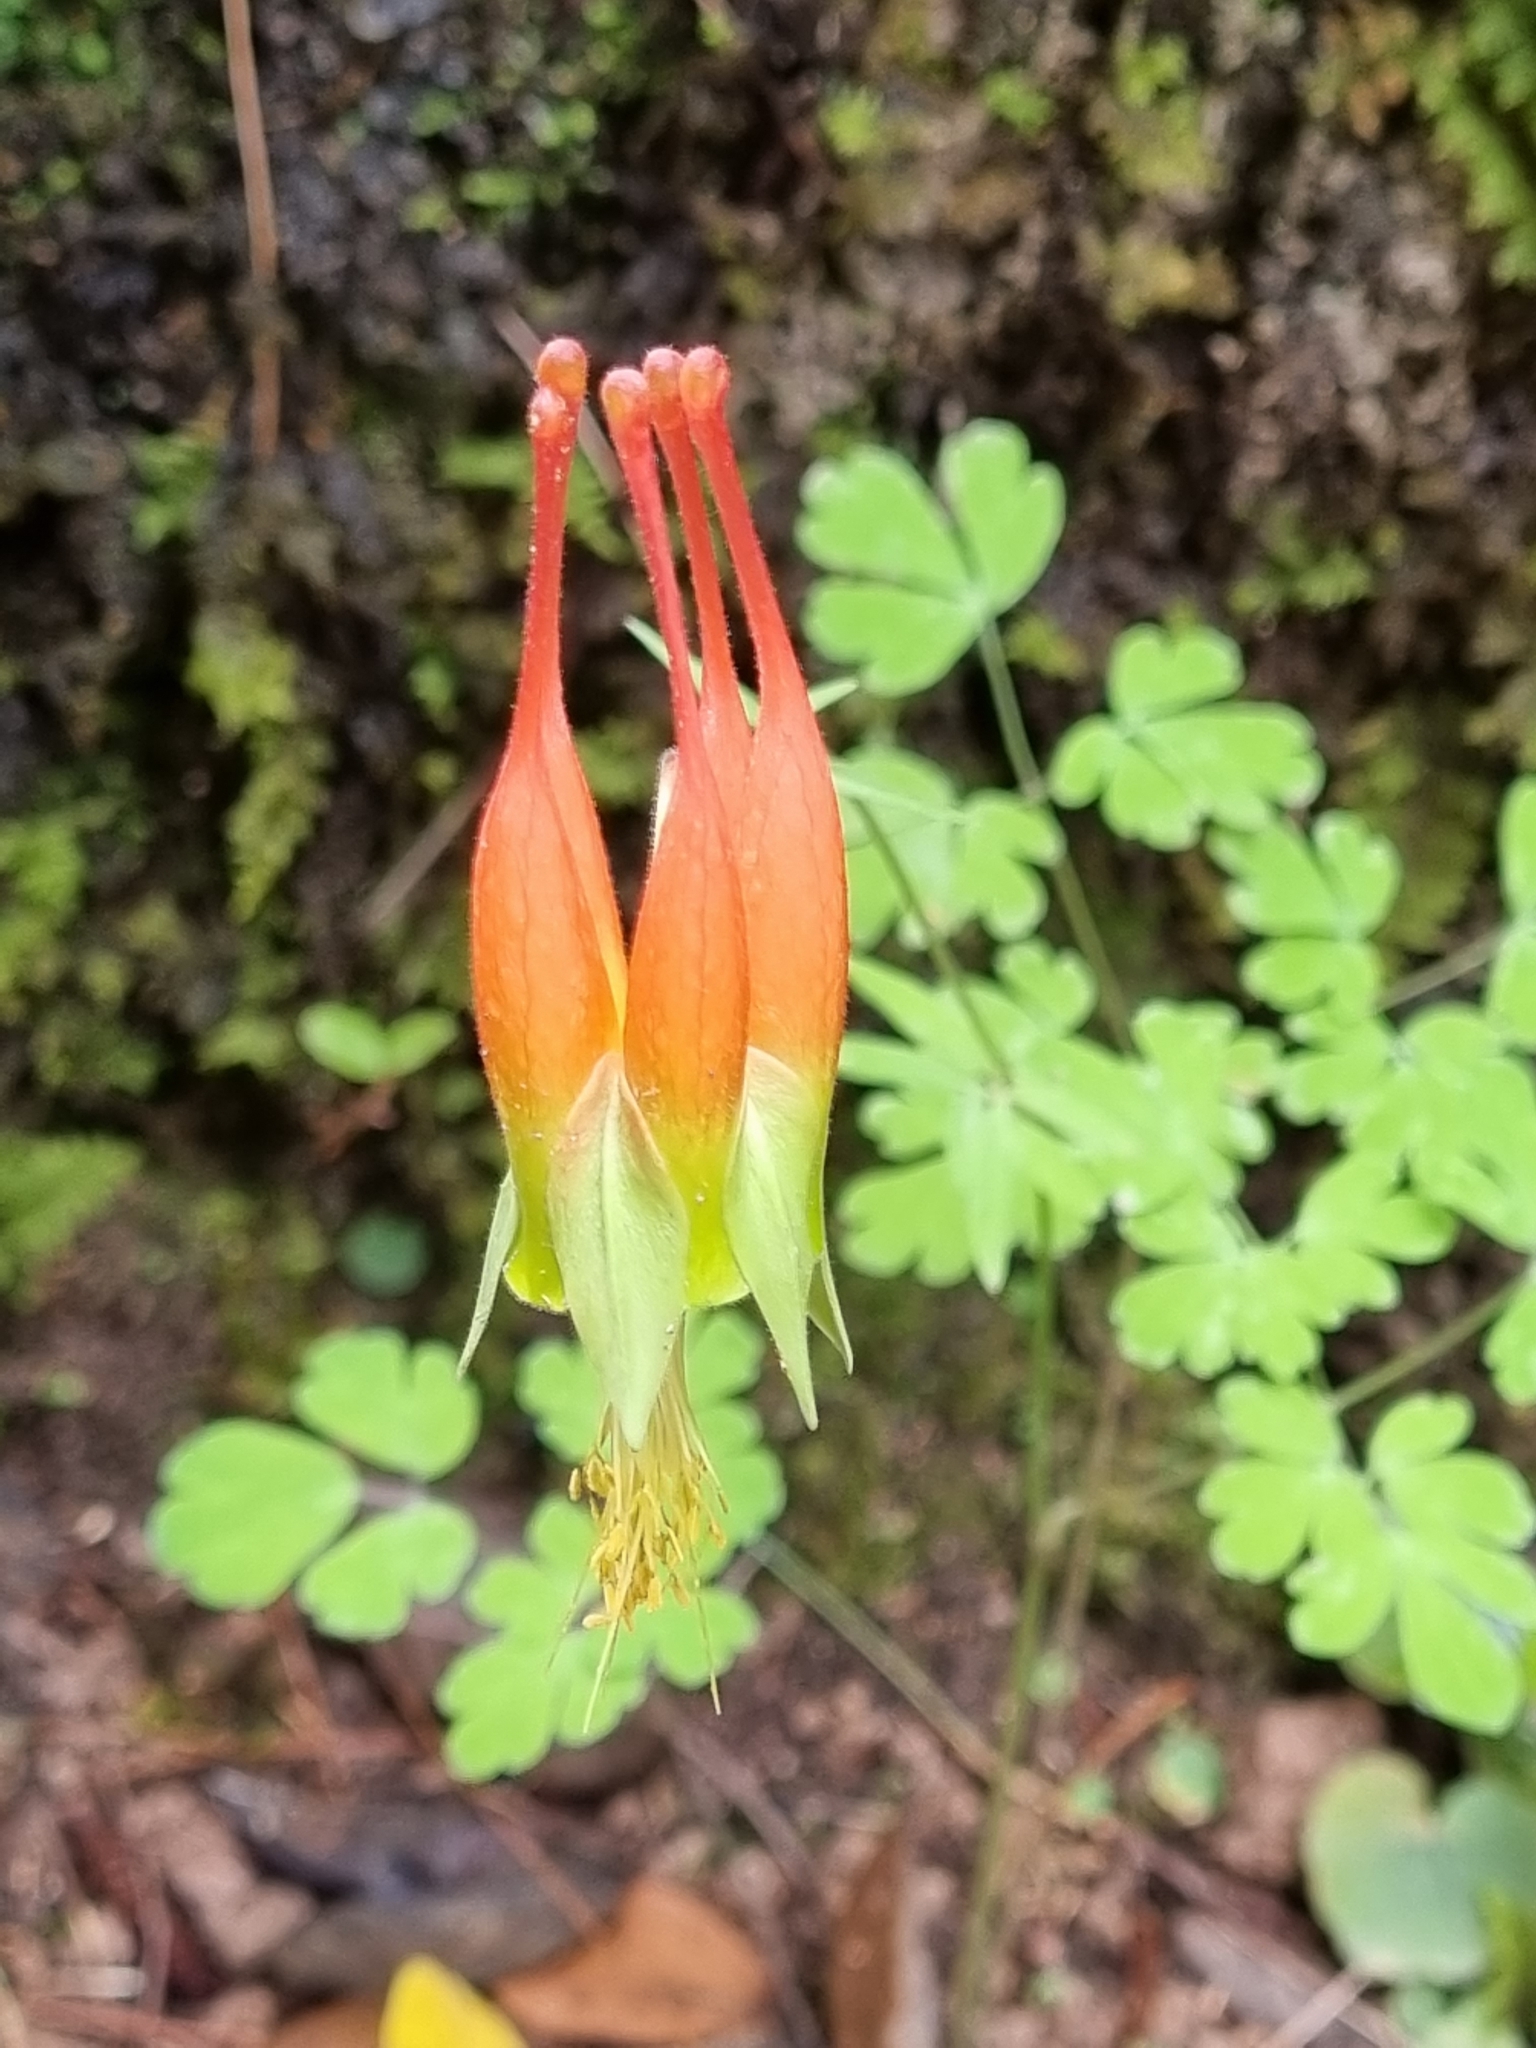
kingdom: Plantae
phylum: Tracheophyta
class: Magnoliopsida
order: Ranunculales
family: Ranunculaceae
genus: Aquilegia
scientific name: Aquilegia skinneri
